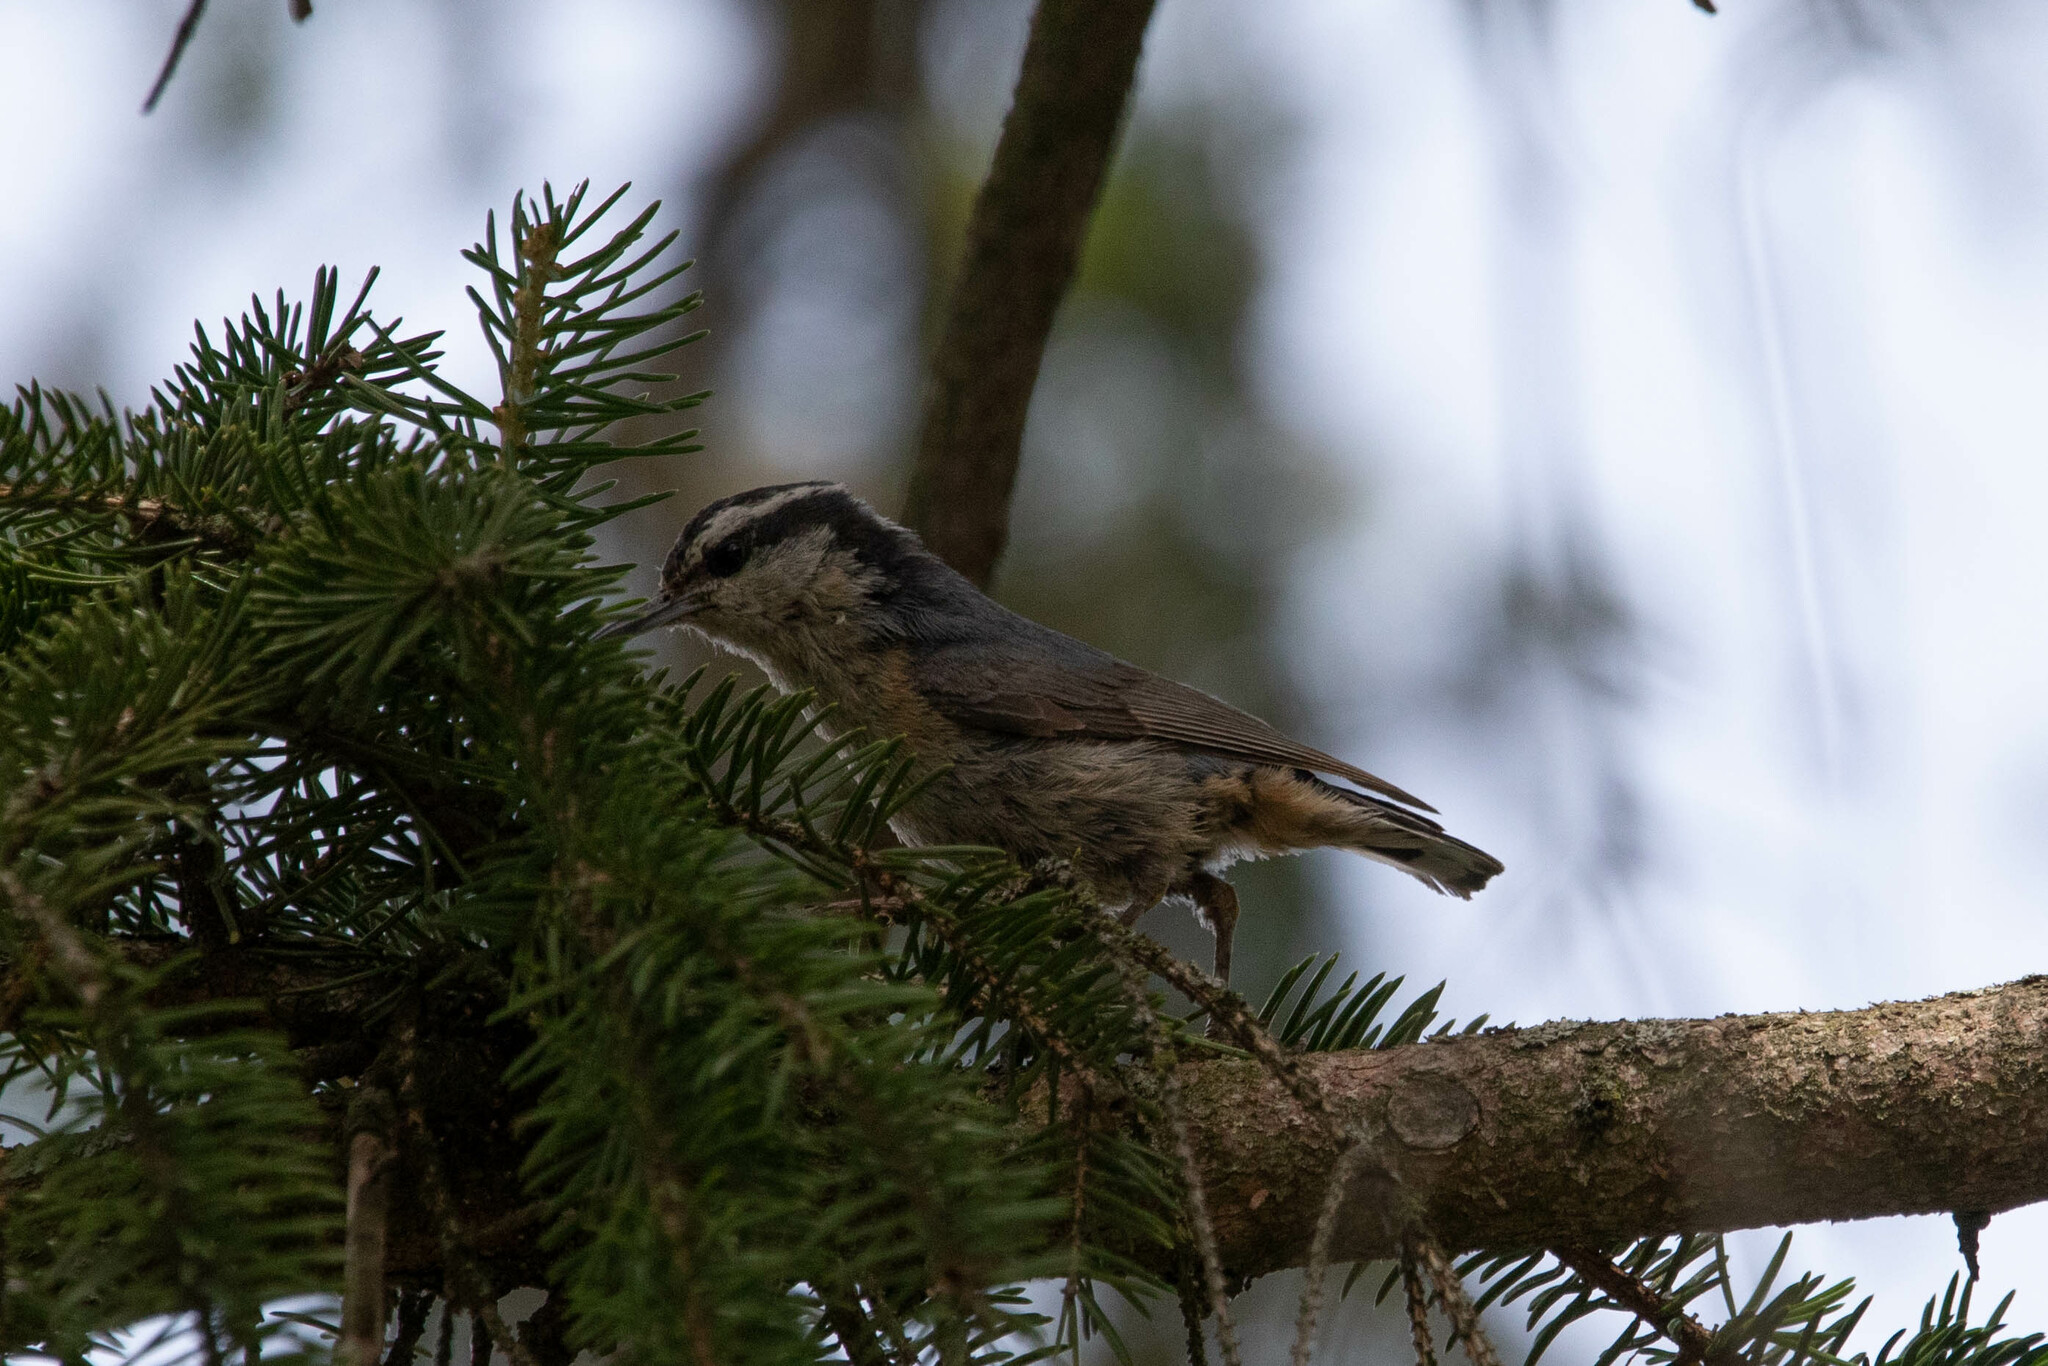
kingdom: Animalia
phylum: Chordata
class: Aves
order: Passeriformes
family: Sittidae
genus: Sitta
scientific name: Sitta canadensis
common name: Red-breasted nuthatch
